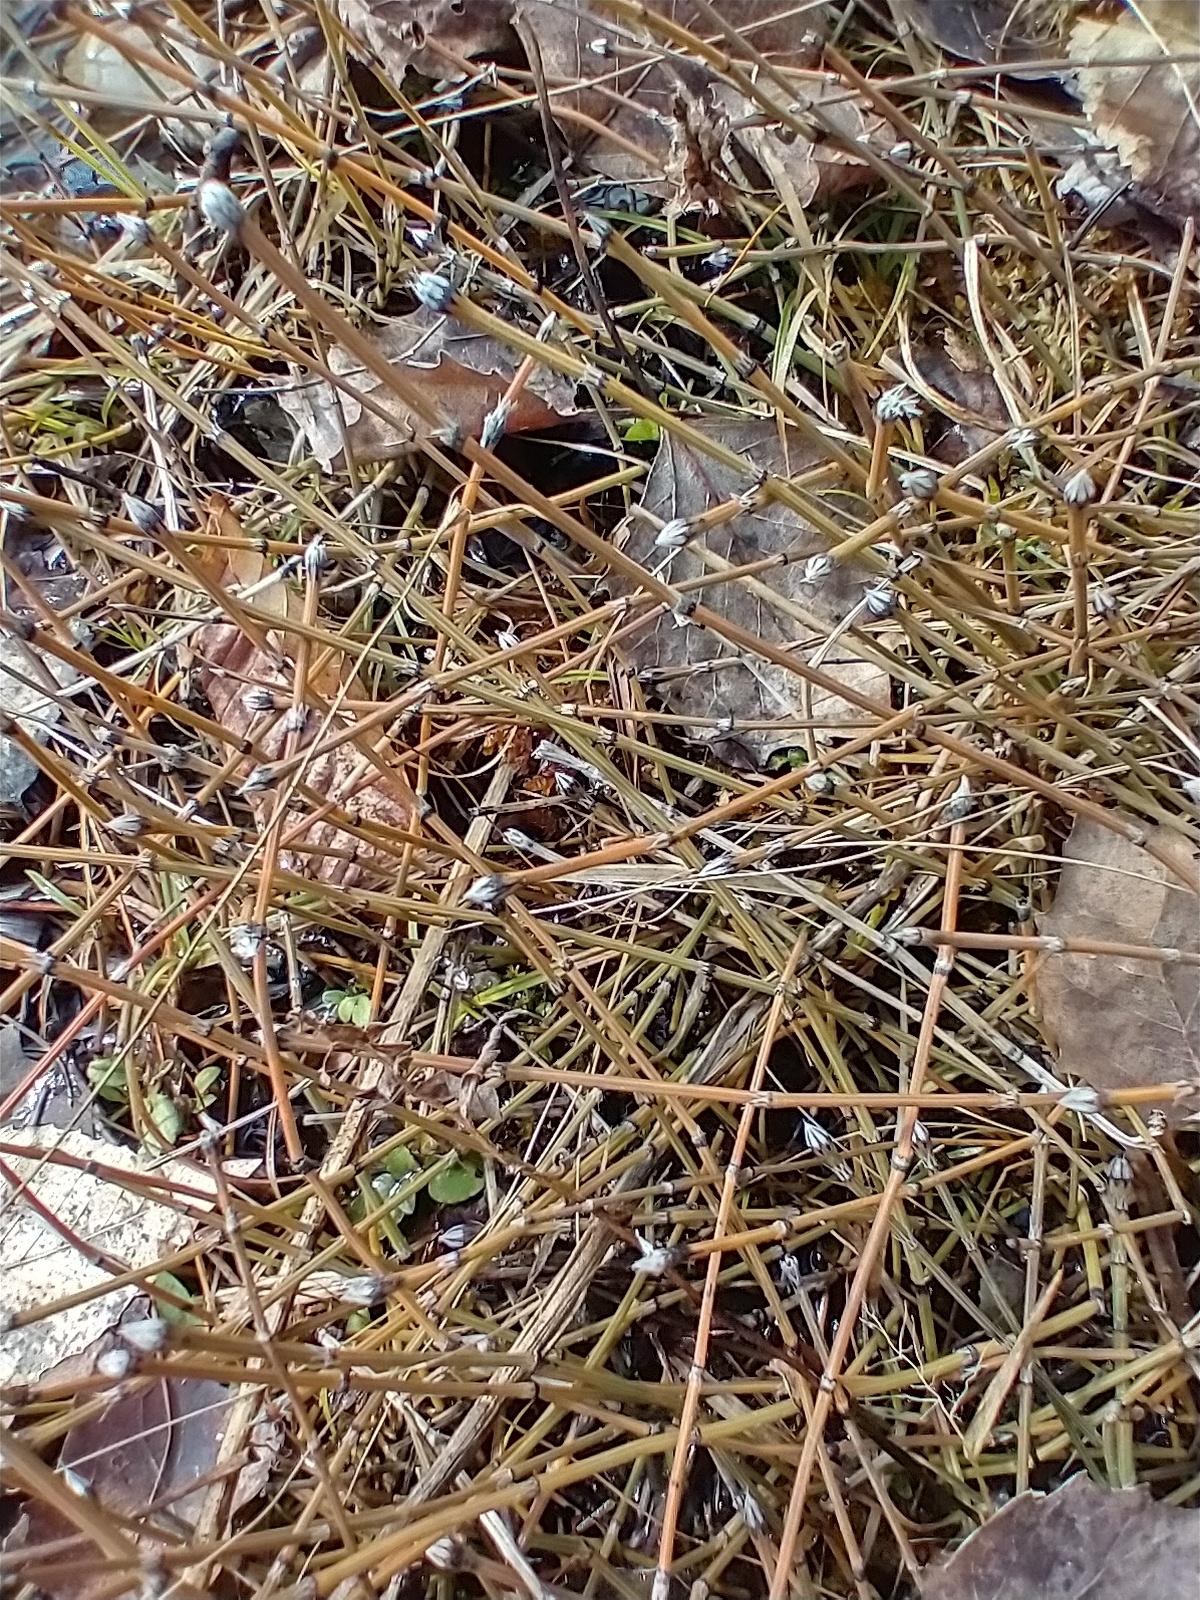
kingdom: Plantae
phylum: Tracheophyta
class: Polypodiopsida
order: Equisetales
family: Equisetaceae
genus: Equisetum
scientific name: Equisetum variegatum
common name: Variegated horsetail
